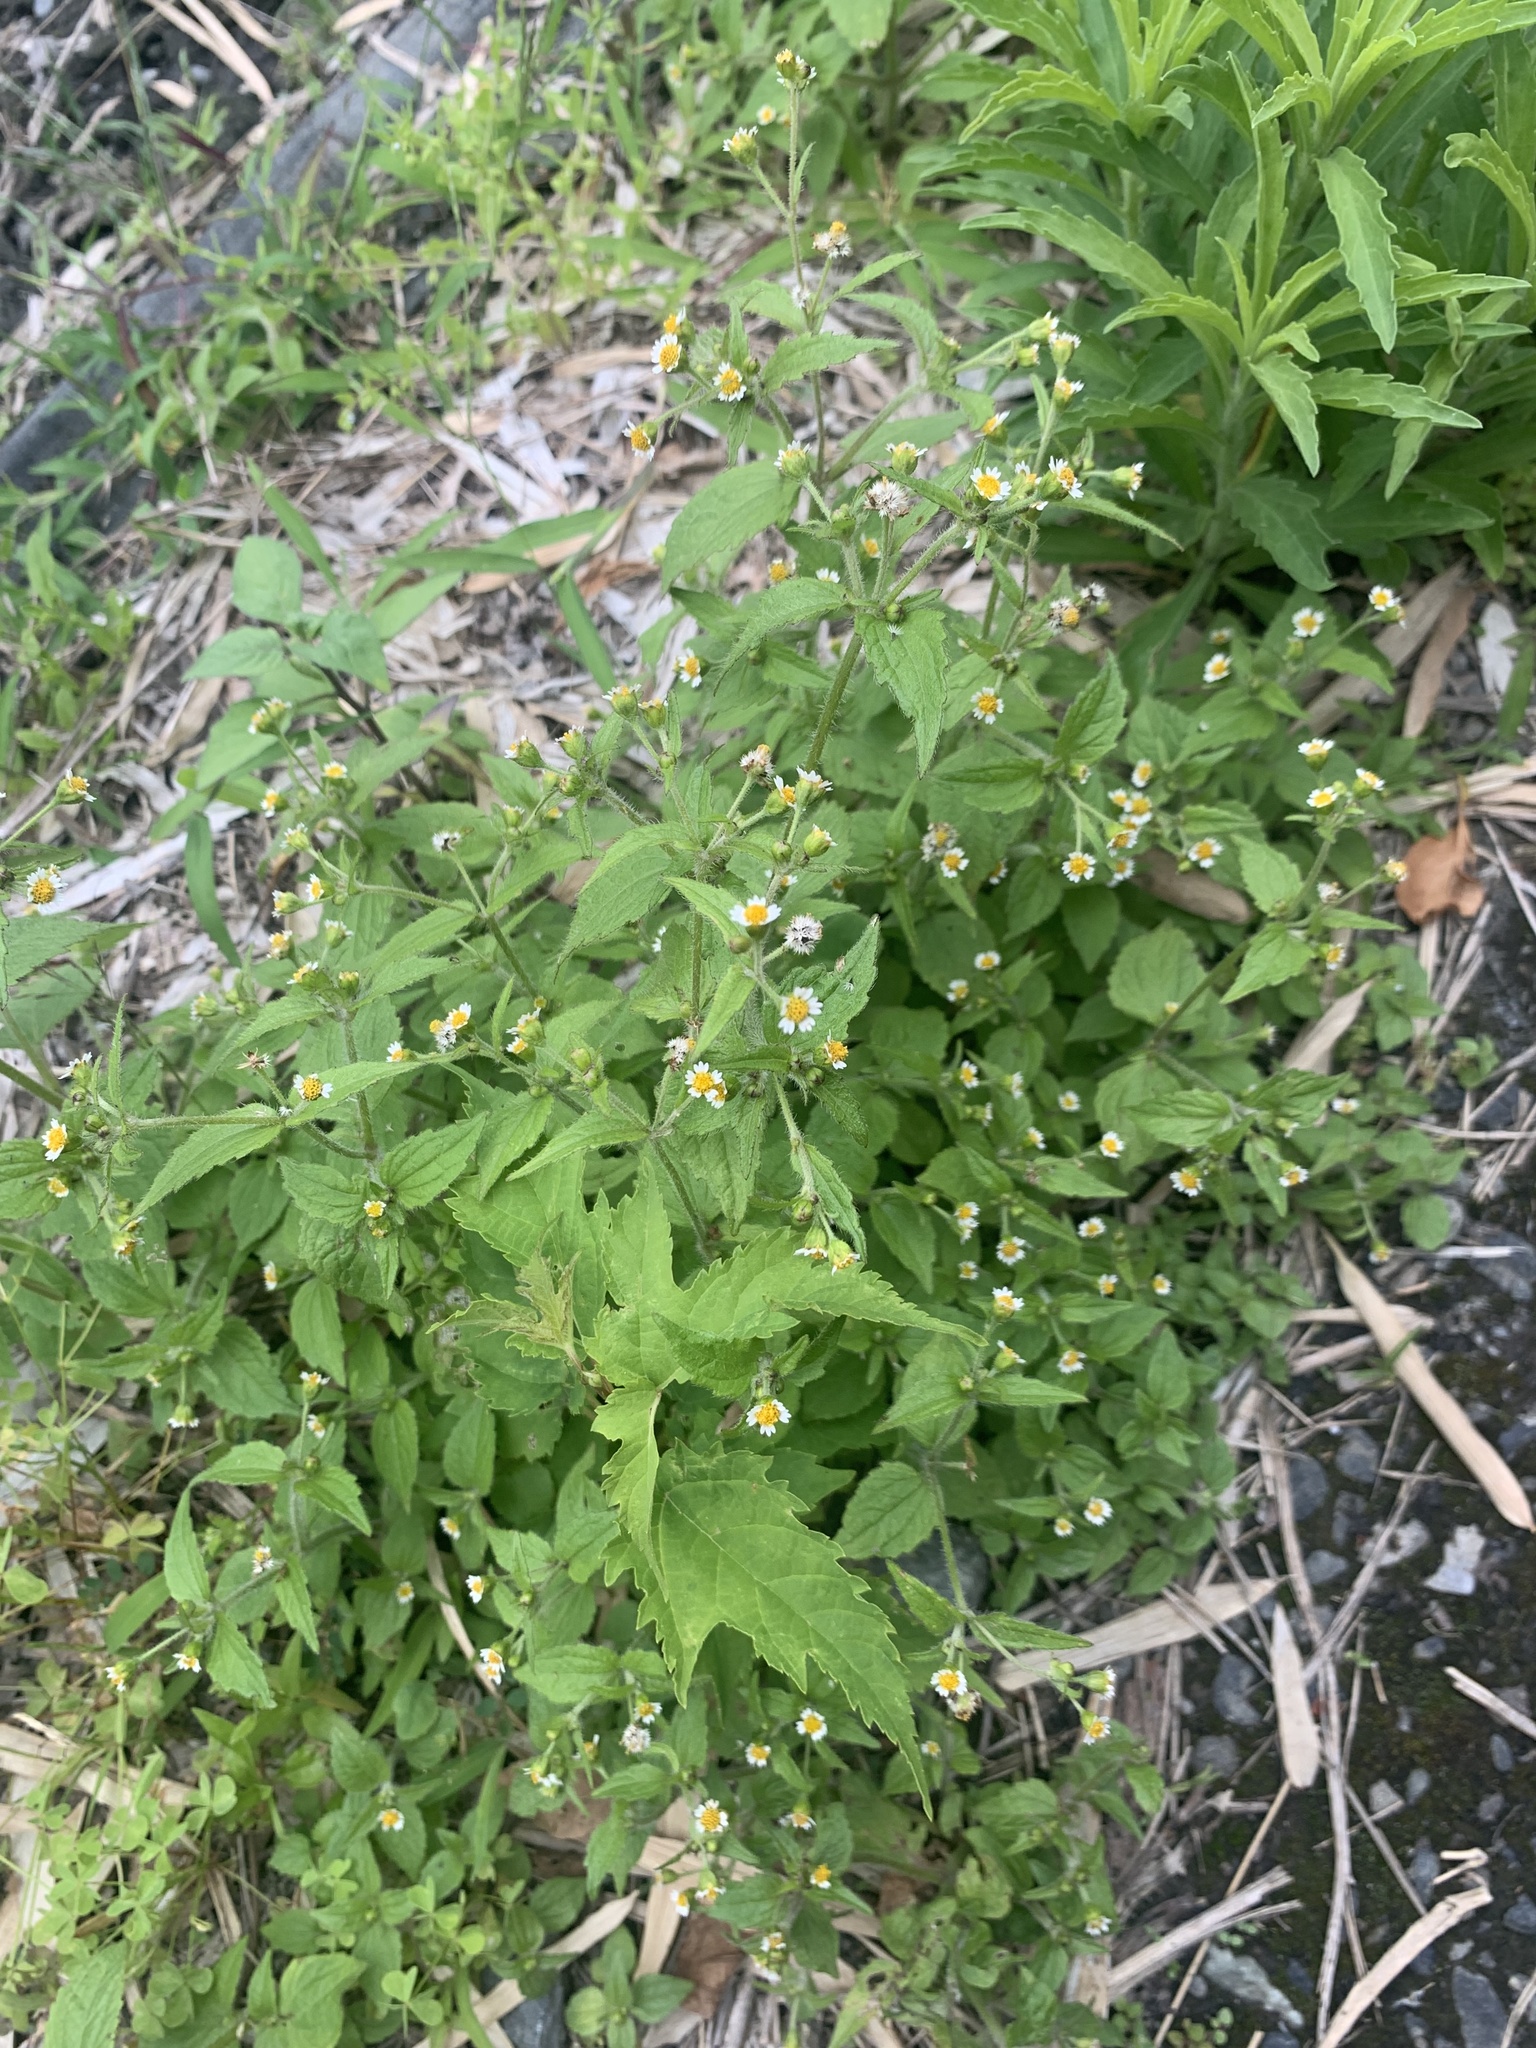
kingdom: Plantae
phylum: Tracheophyta
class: Magnoliopsida
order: Asterales
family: Asteraceae
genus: Galinsoga
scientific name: Galinsoga quadriradiata
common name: Shaggy soldier
